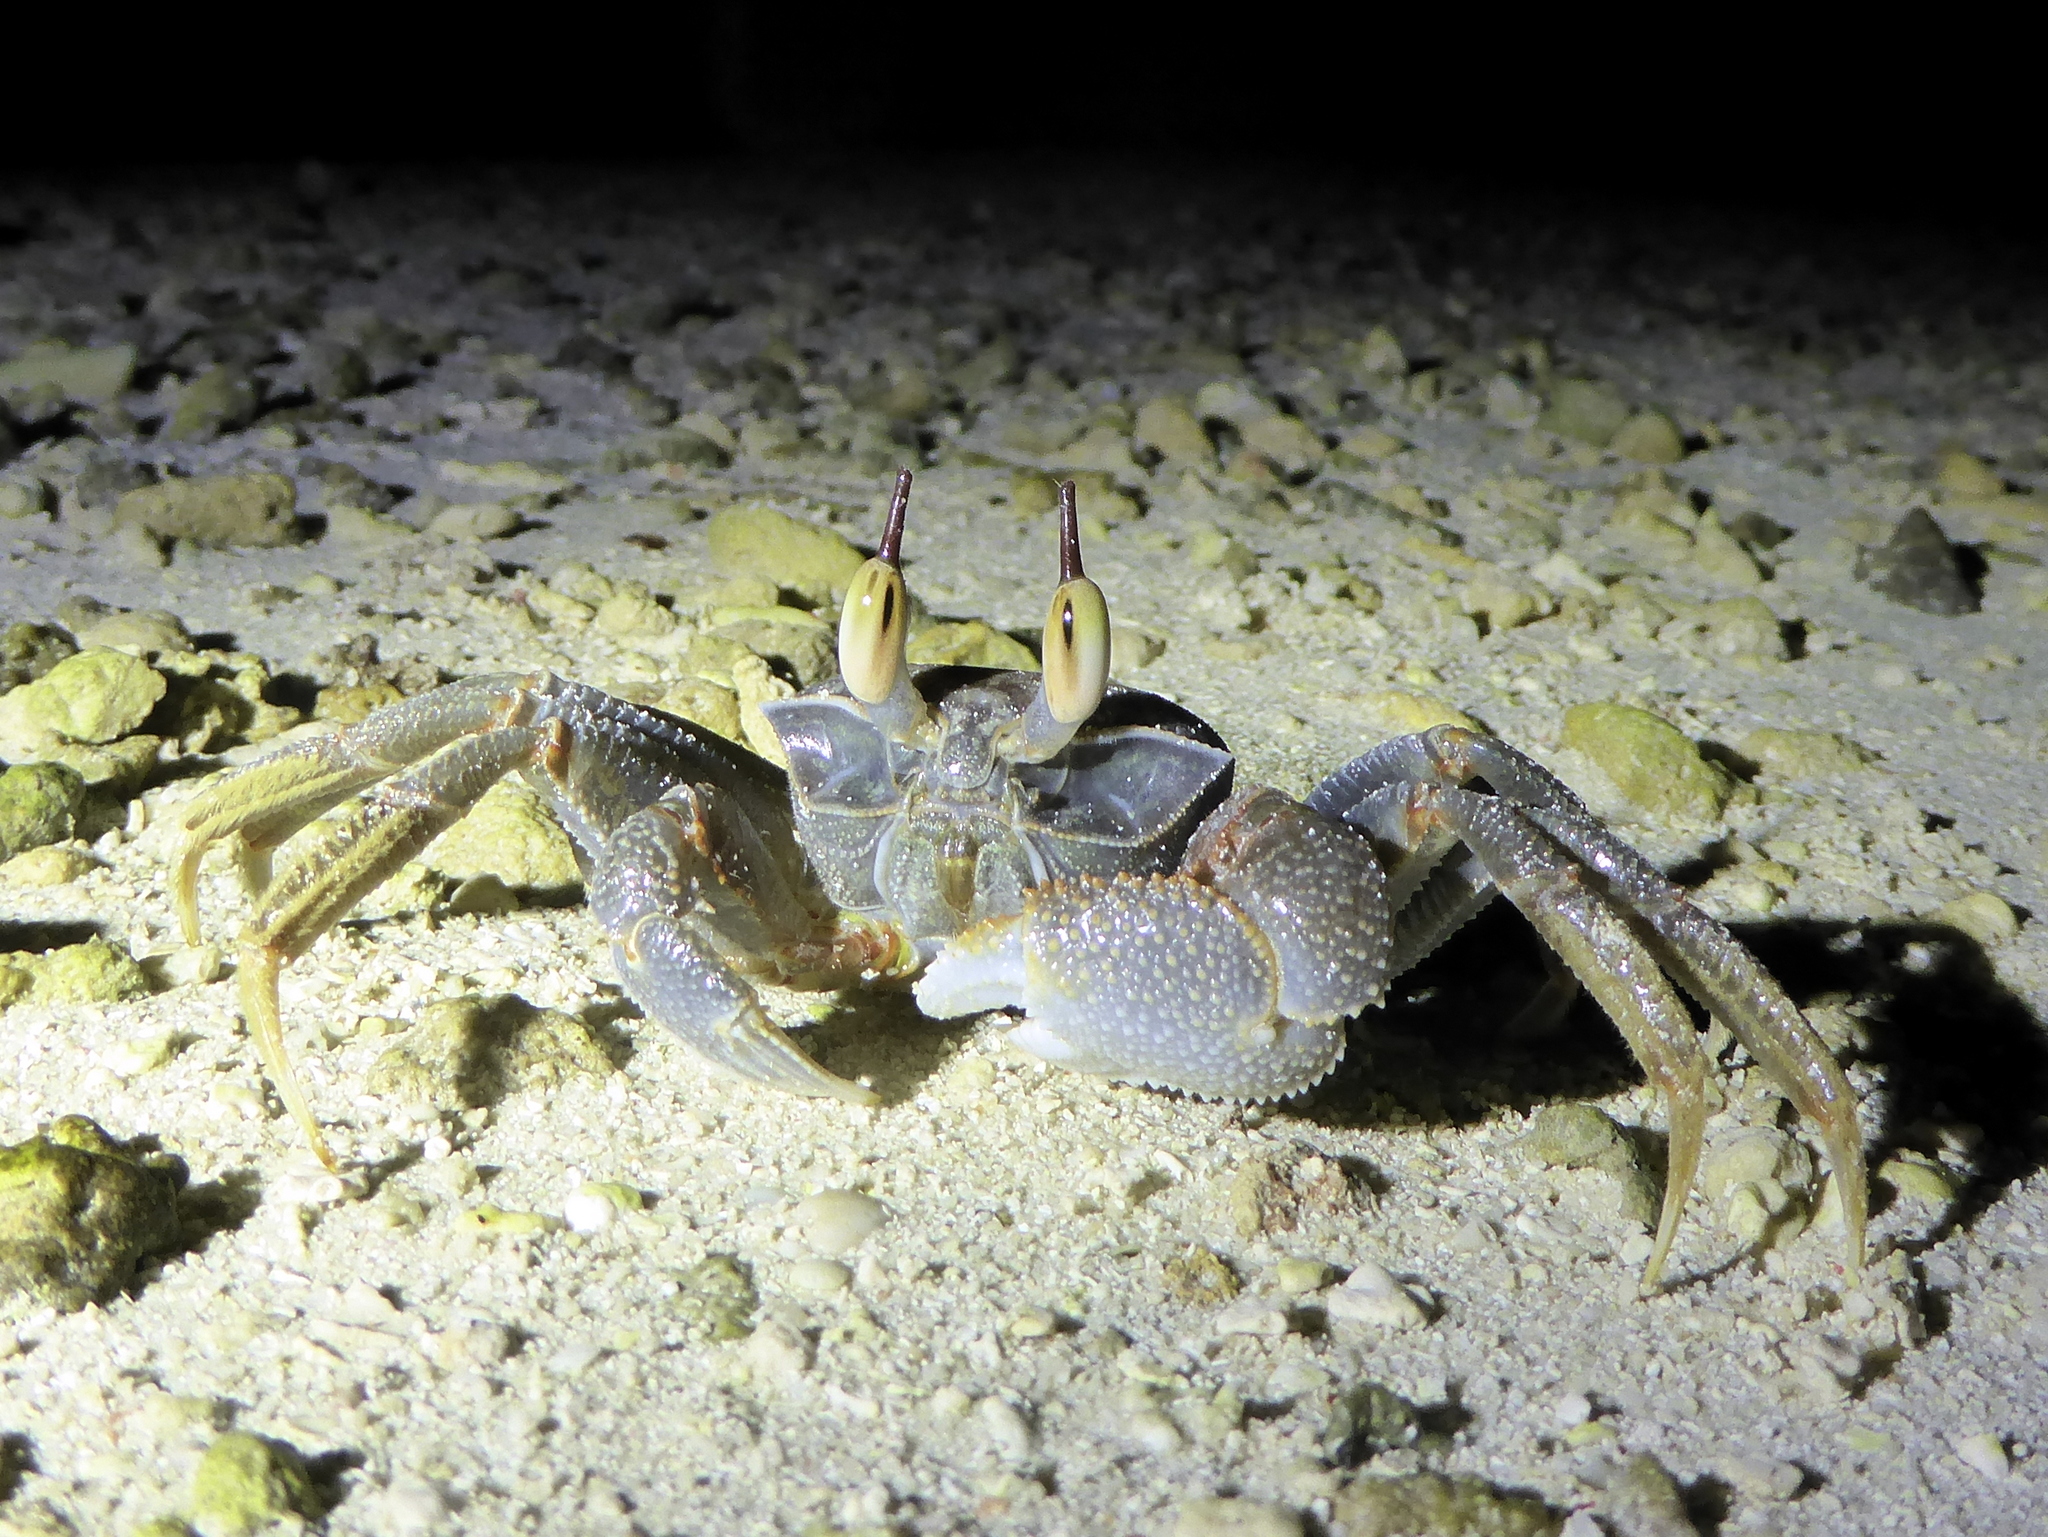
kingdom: Animalia
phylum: Arthropoda
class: Malacostraca
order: Decapoda
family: Ocypodidae
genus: Ocypode
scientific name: Ocypode ceratophthalmus
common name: Indo-pacific ghost crab
